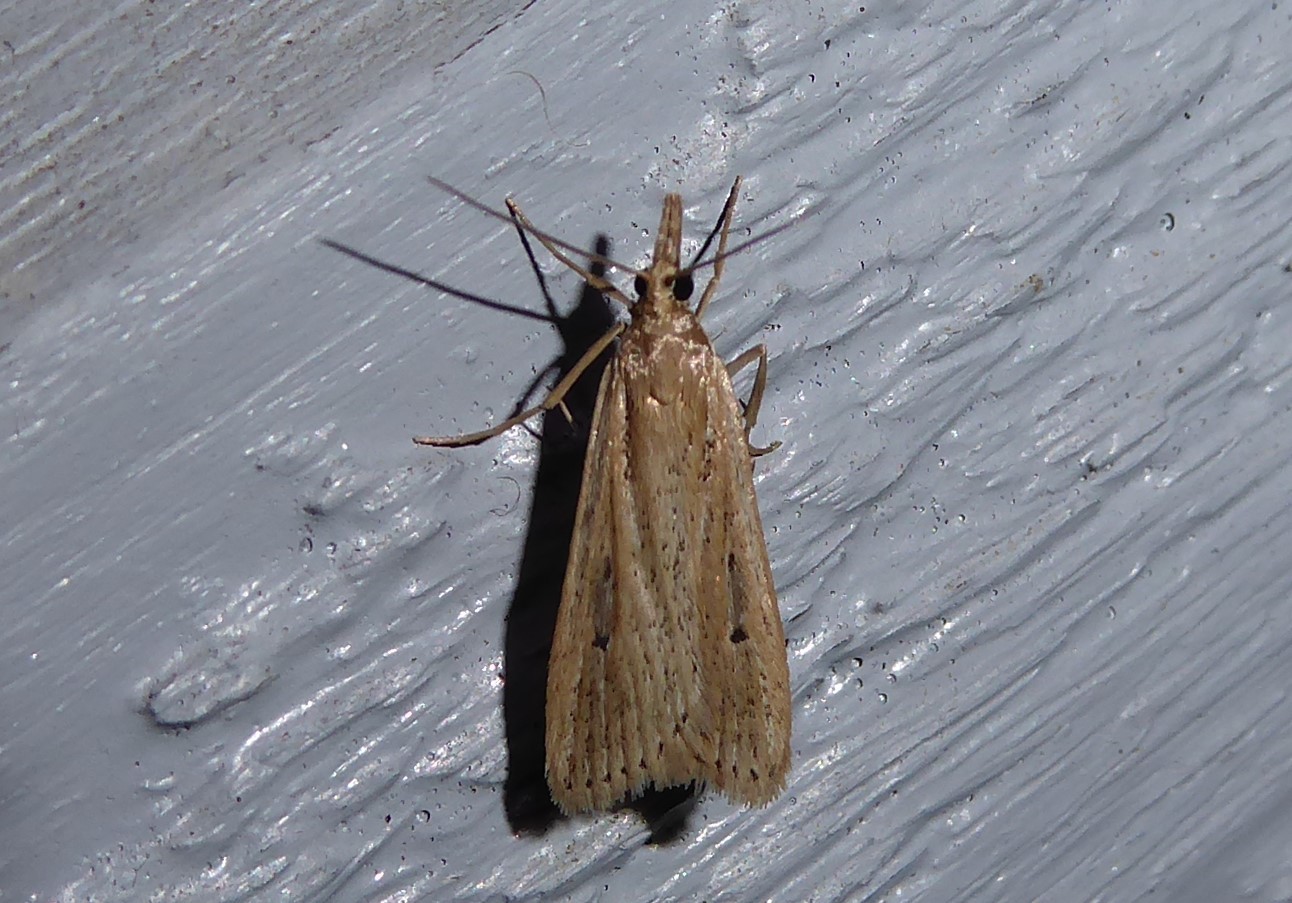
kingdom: Animalia
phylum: Arthropoda
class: Insecta
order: Lepidoptera
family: Crambidae
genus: Eudonia
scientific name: Eudonia sabulosella
